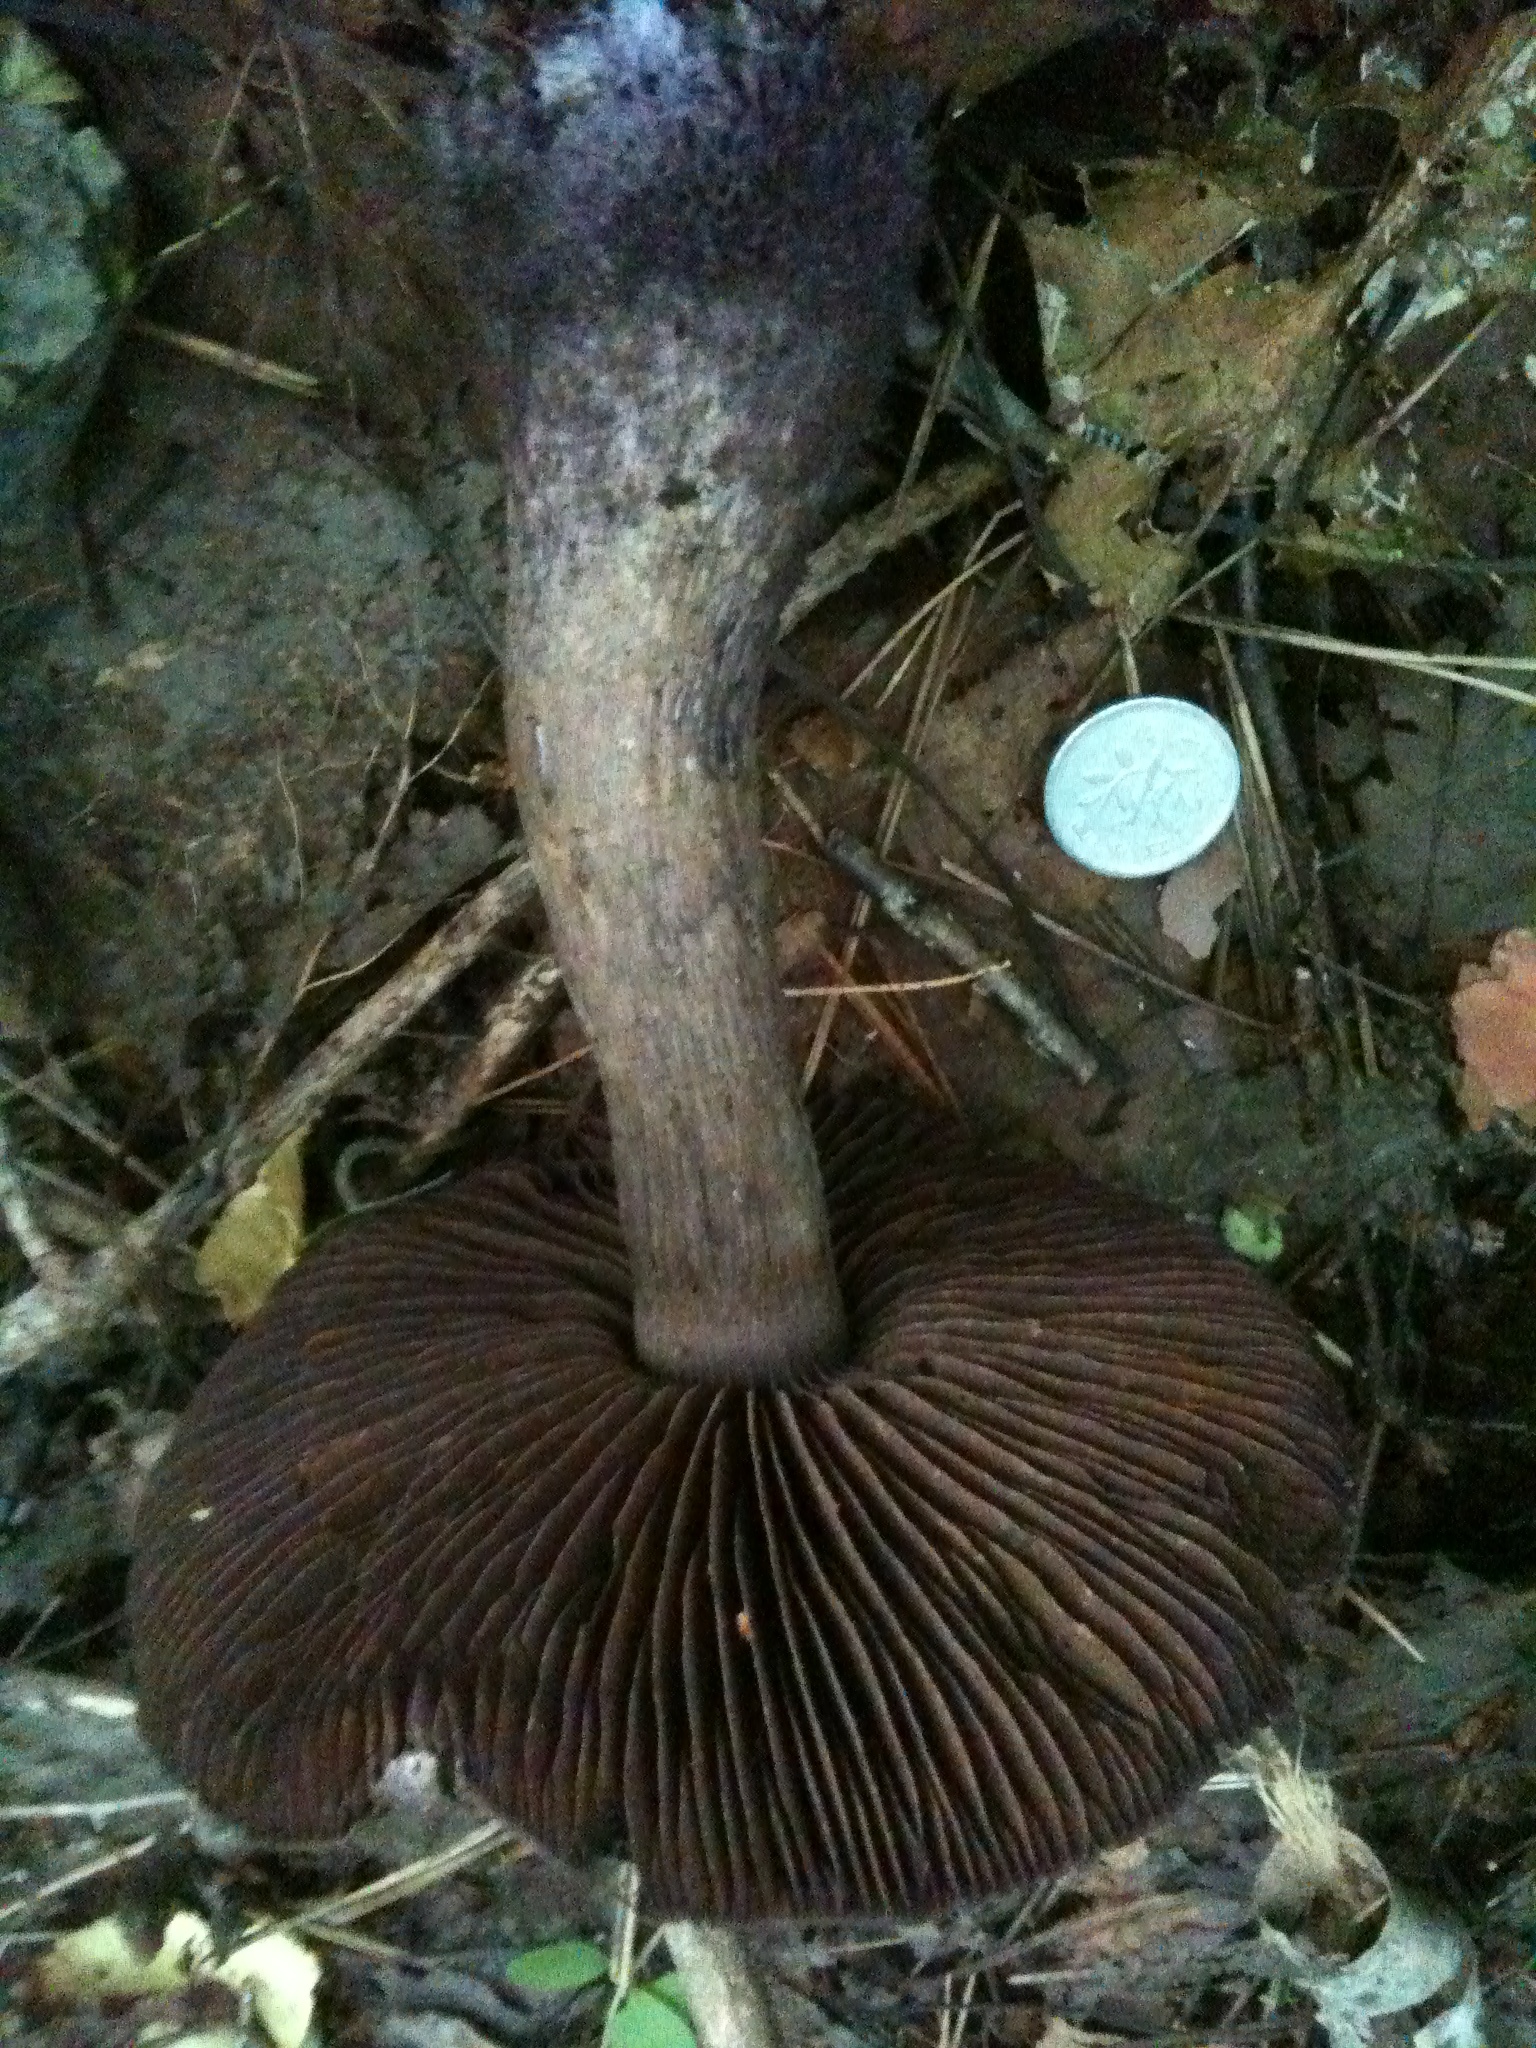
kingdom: Fungi
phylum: Basidiomycota
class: Agaricomycetes
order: Agaricales
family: Cortinariaceae
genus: Cortinarius
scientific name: Cortinarius violaceus
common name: Violet webcap
